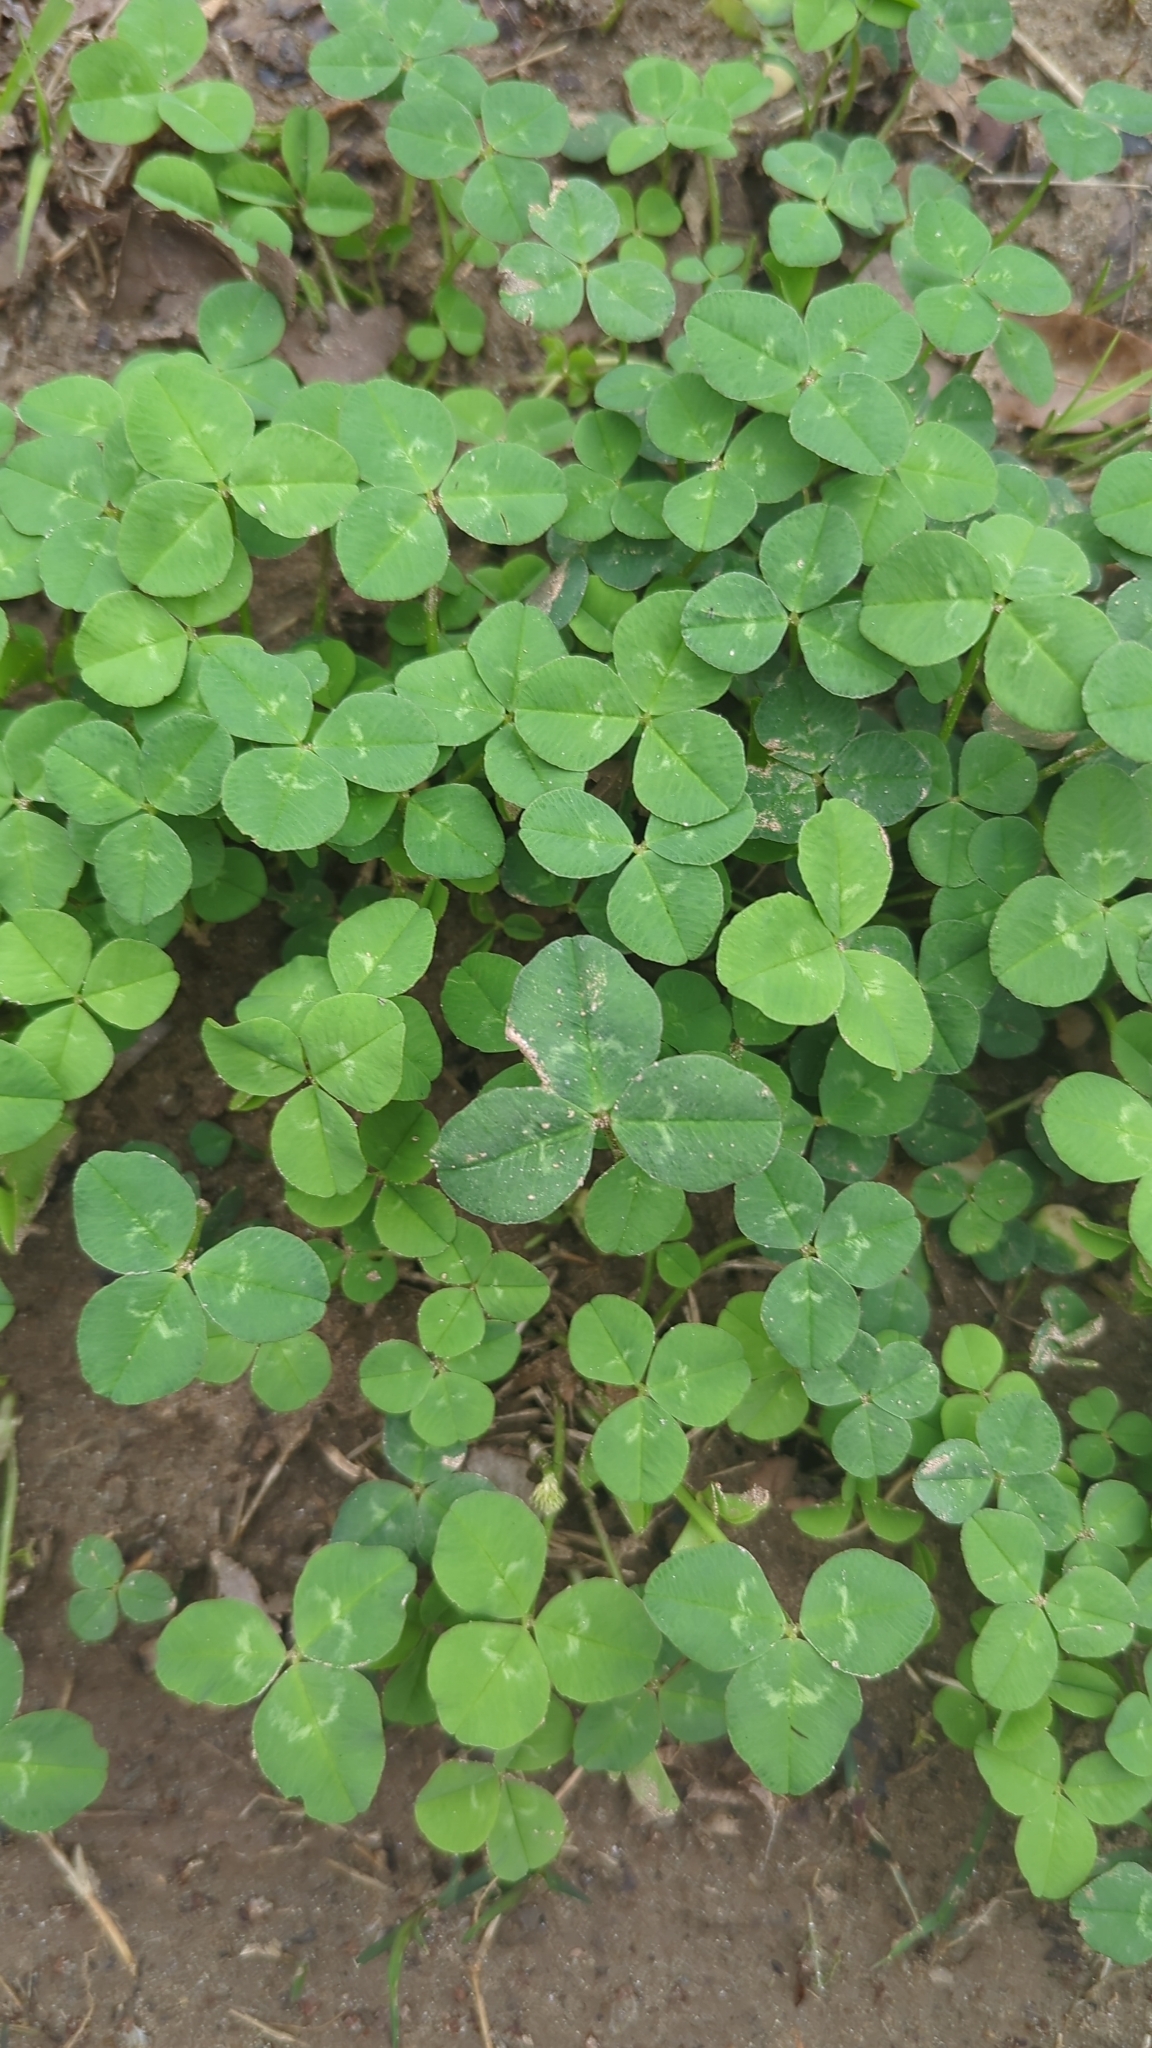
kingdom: Plantae
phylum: Tracheophyta
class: Magnoliopsida
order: Fabales
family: Fabaceae
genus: Trifolium
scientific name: Trifolium repens
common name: White clover
